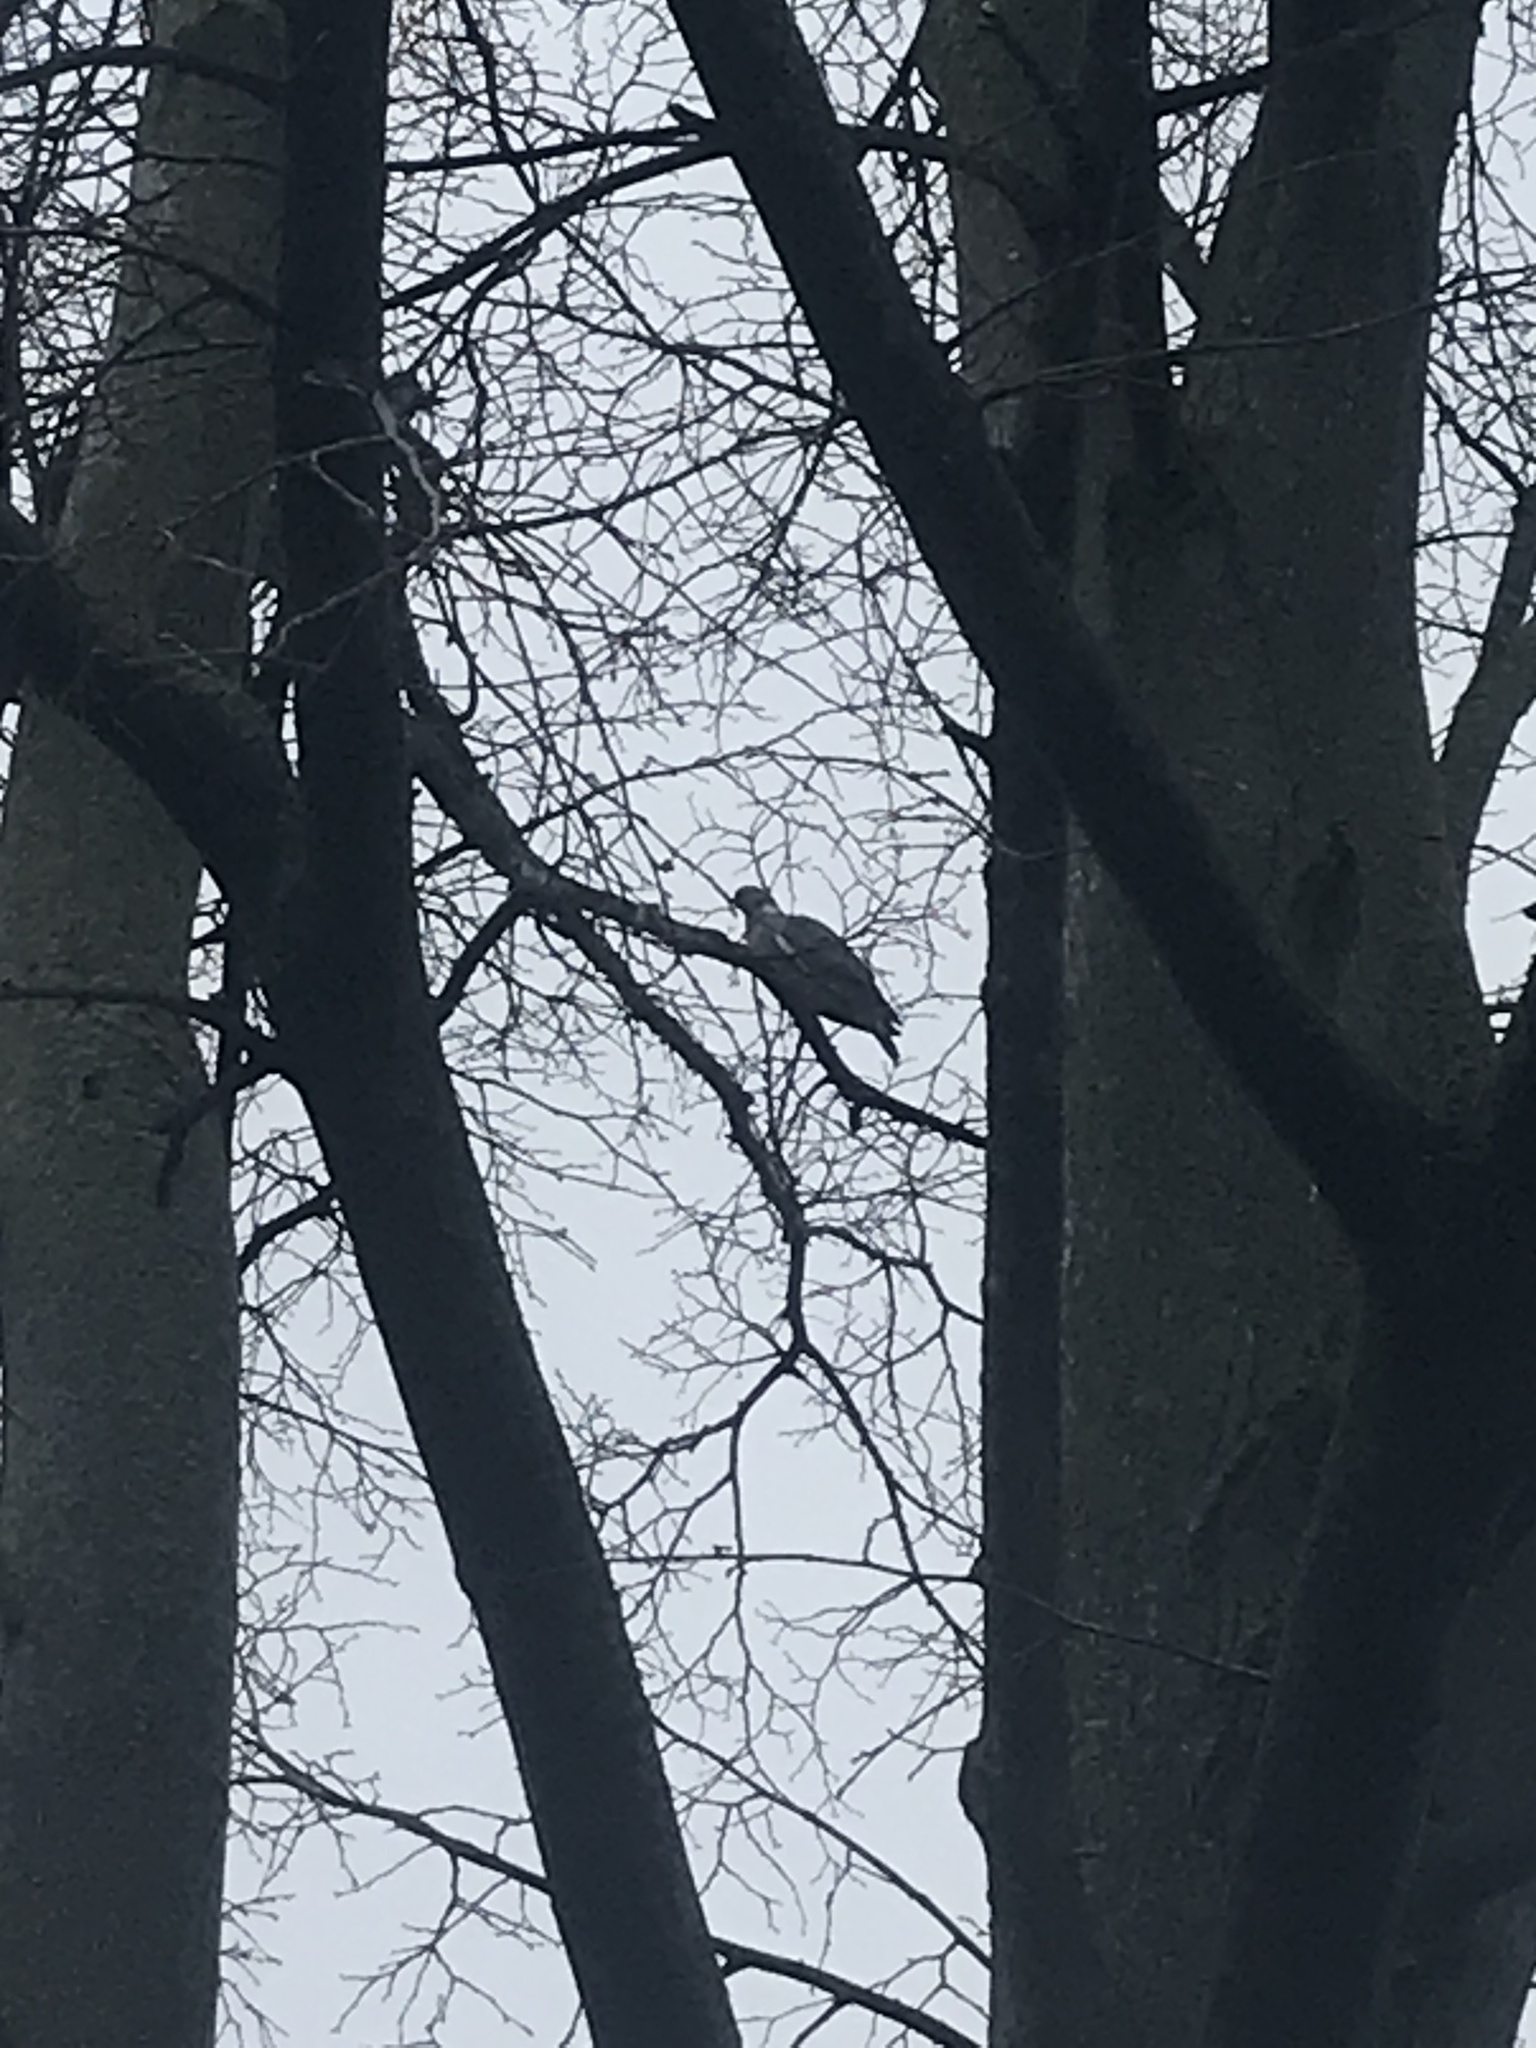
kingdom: Animalia
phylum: Chordata
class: Aves
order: Columbiformes
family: Columbidae
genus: Columba
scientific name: Columba palumbus
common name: Common wood pigeon
